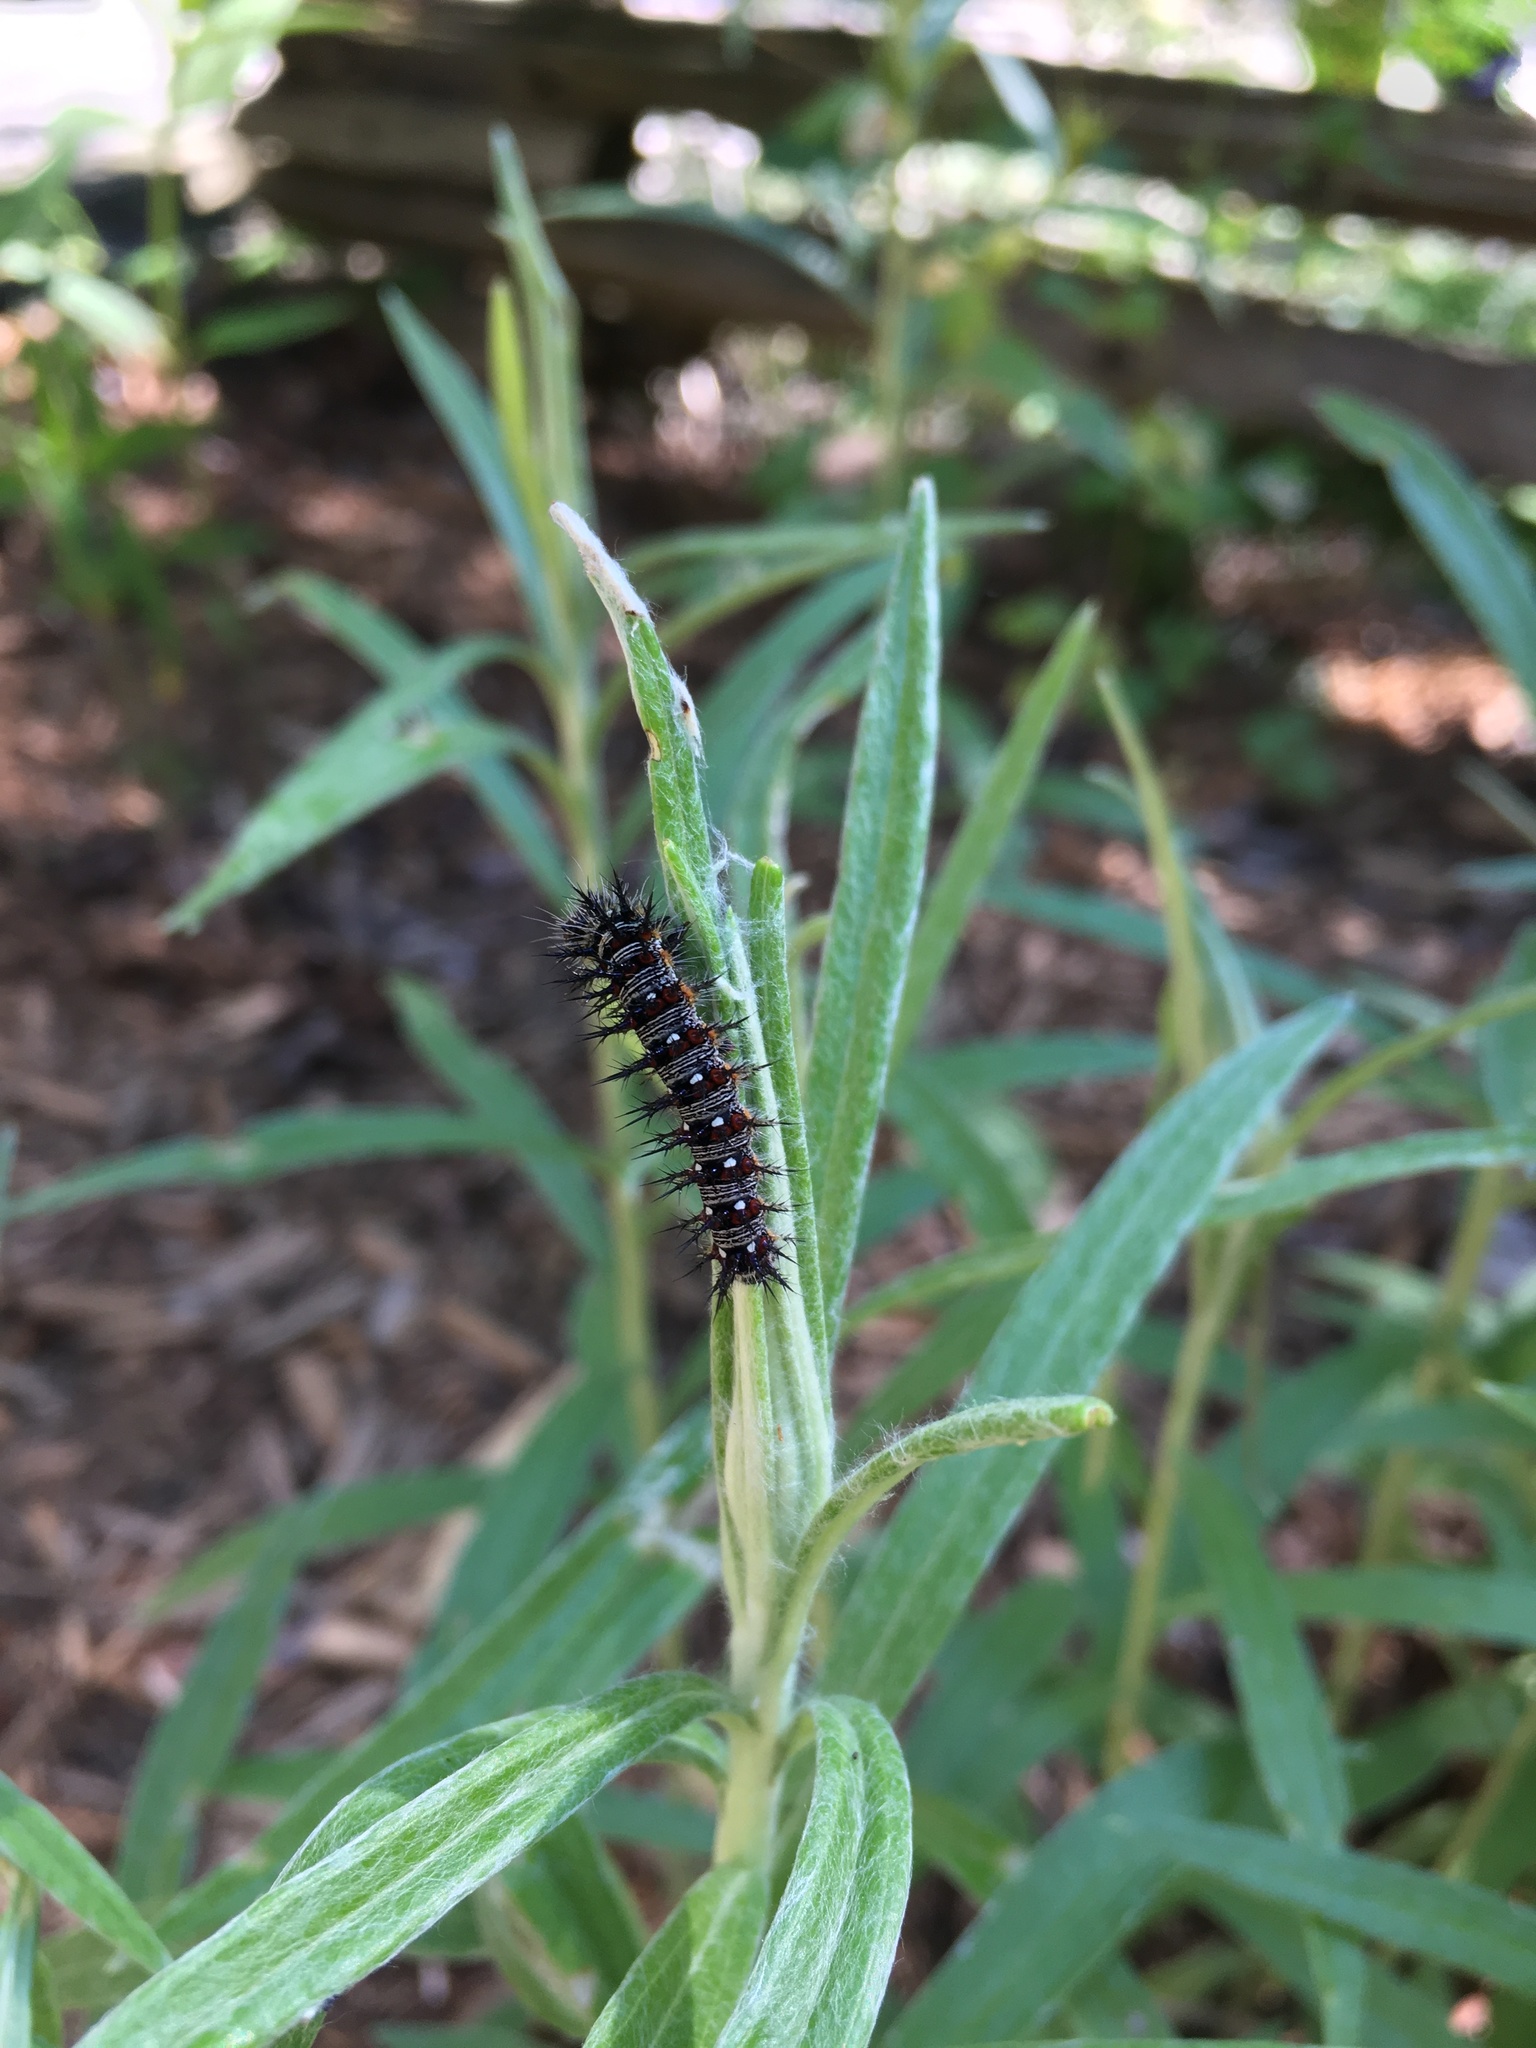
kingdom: Animalia
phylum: Arthropoda
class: Insecta
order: Lepidoptera
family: Nymphalidae
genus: Vanessa
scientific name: Vanessa virginiensis
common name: American lady
